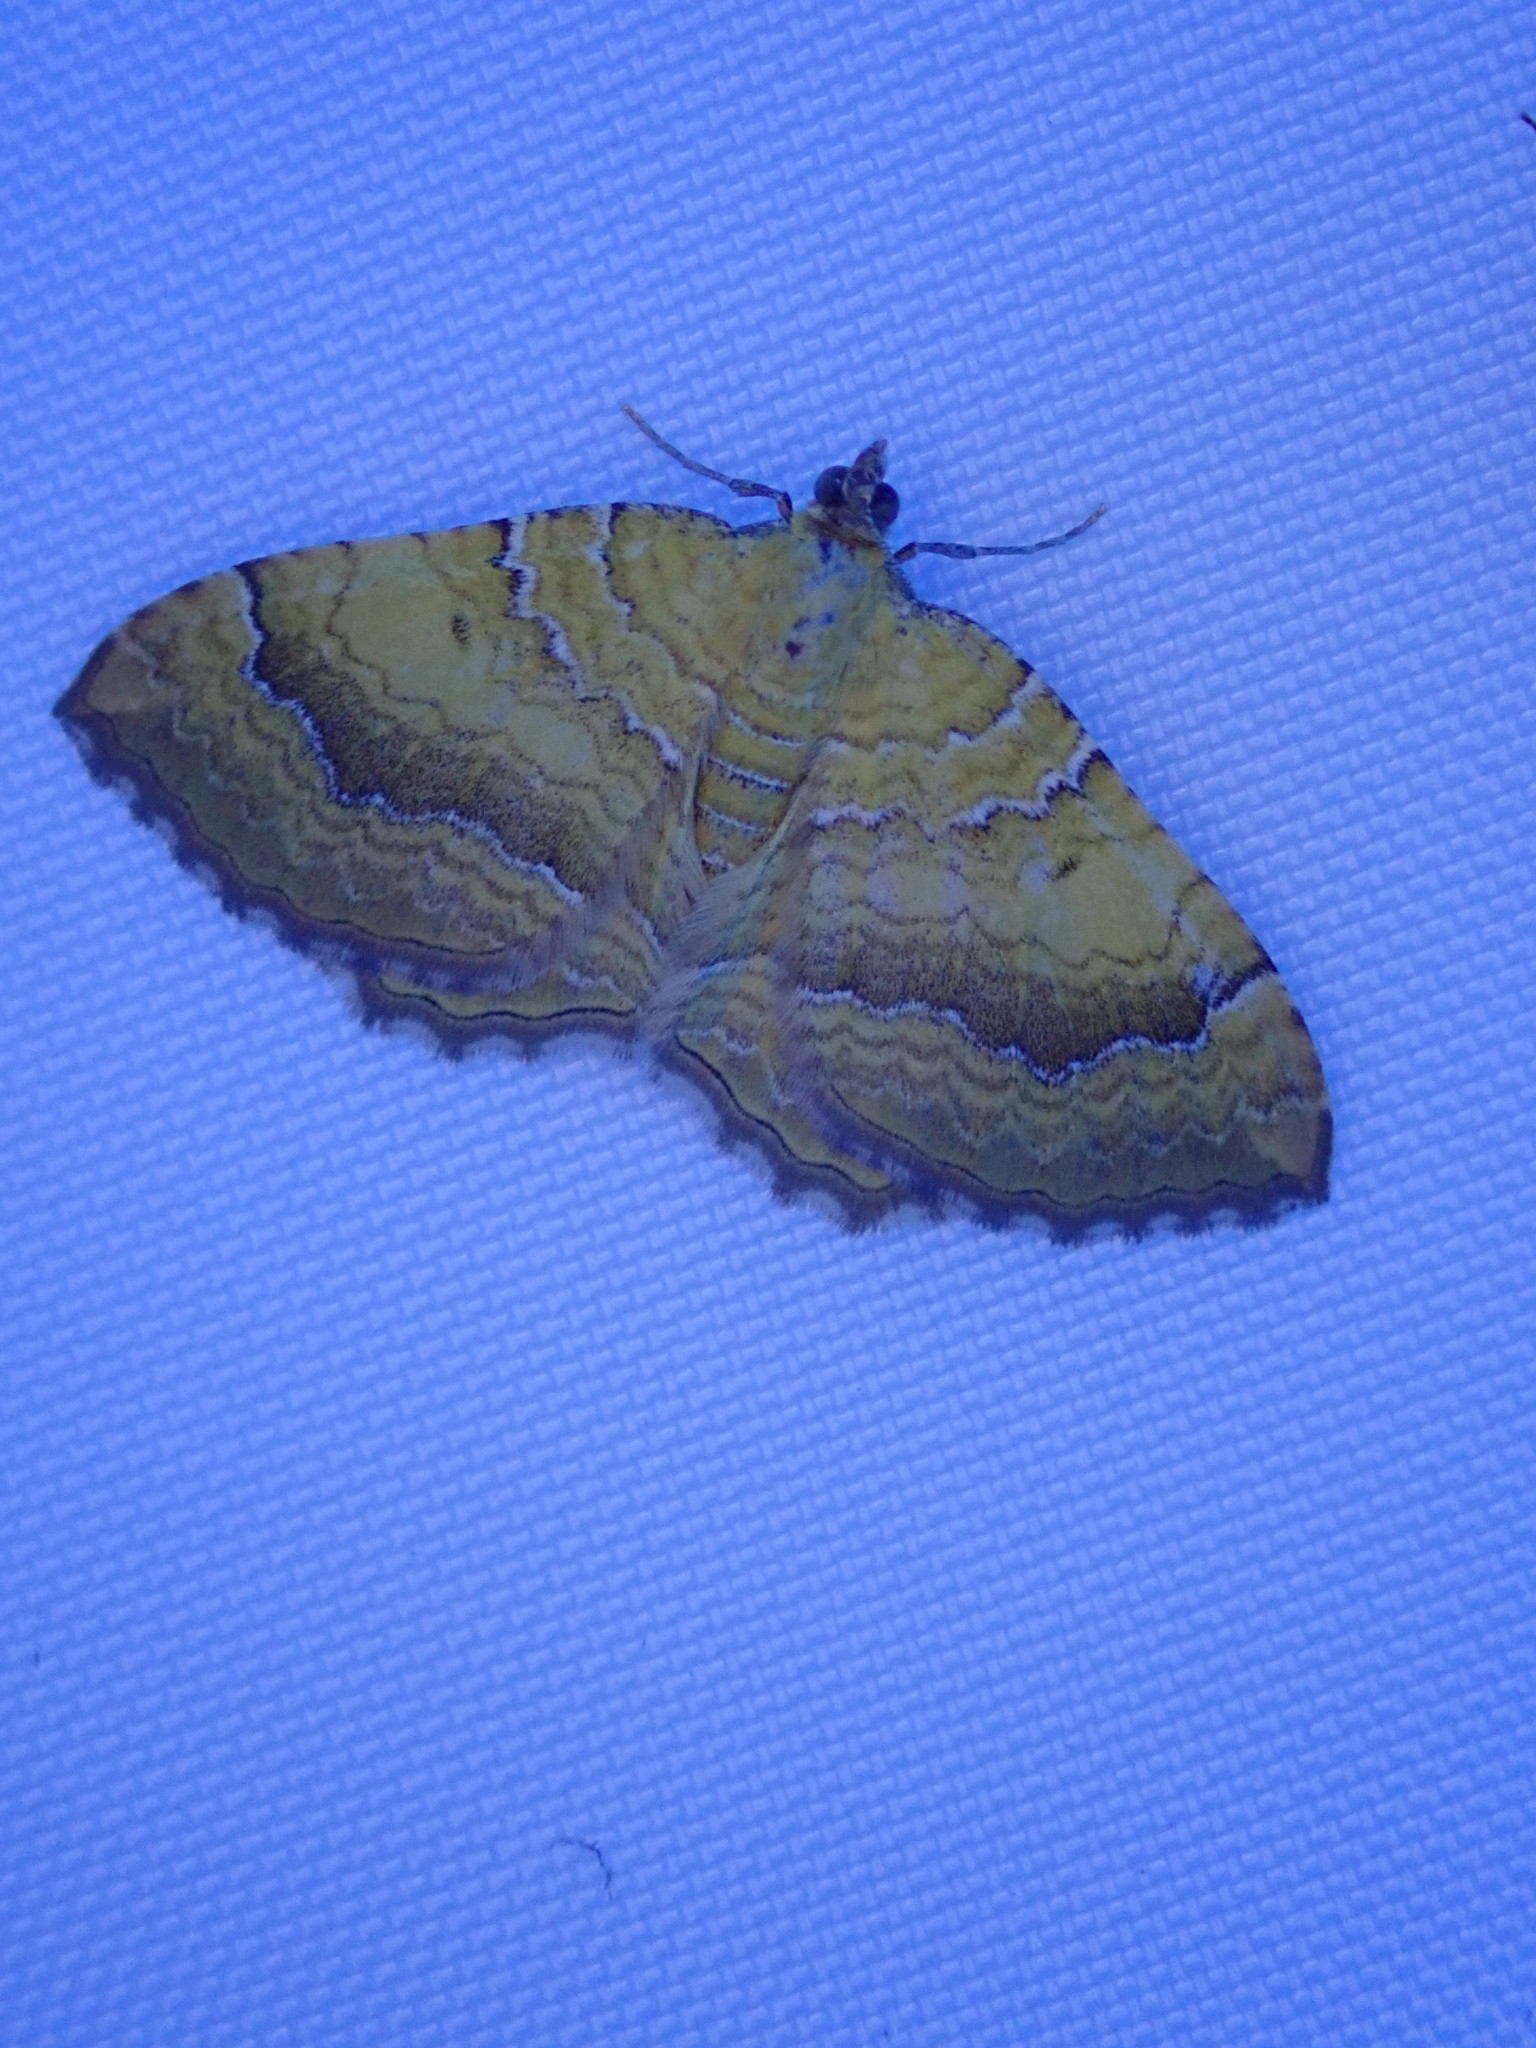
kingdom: Animalia
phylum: Arthropoda
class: Insecta
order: Lepidoptera
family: Geometridae
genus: Camptogramma
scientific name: Camptogramma bilineata
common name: Yellow shell
